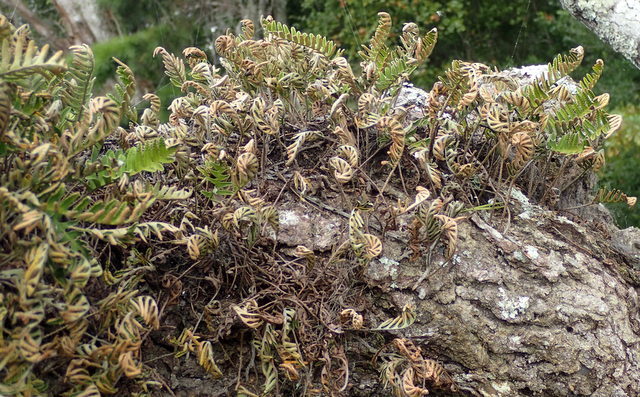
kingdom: Plantae
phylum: Tracheophyta
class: Polypodiopsida
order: Polypodiales
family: Polypodiaceae
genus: Pleopeltis
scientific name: Pleopeltis michauxiana
